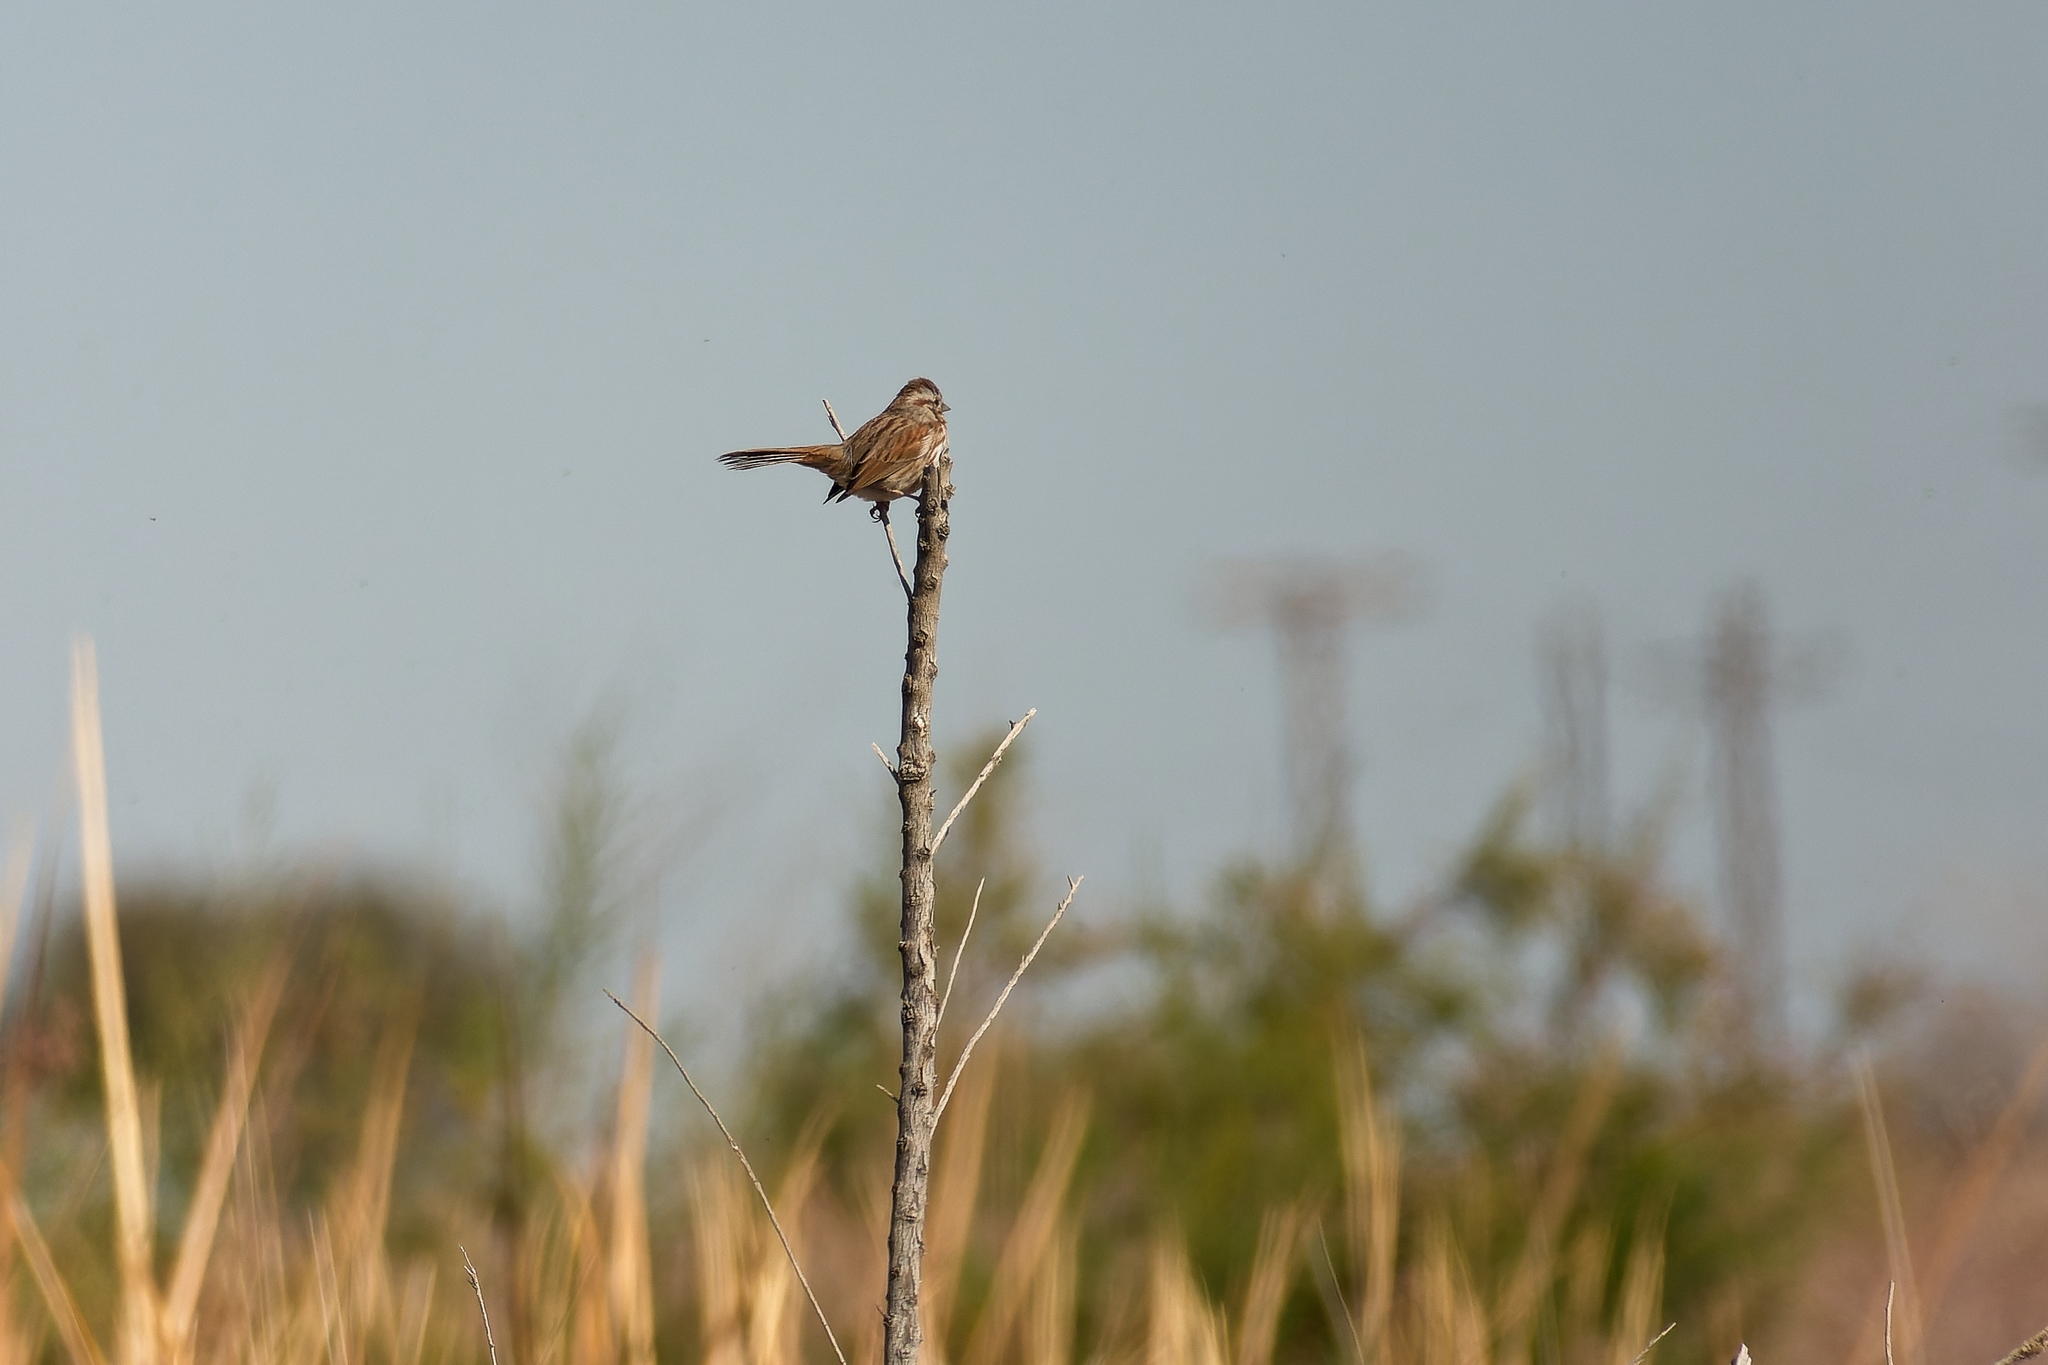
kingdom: Animalia
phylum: Chordata
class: Aves
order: Passeriformes
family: Passerellidae
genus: Melospiza
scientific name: Melospiza melodia
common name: Song sparrow
